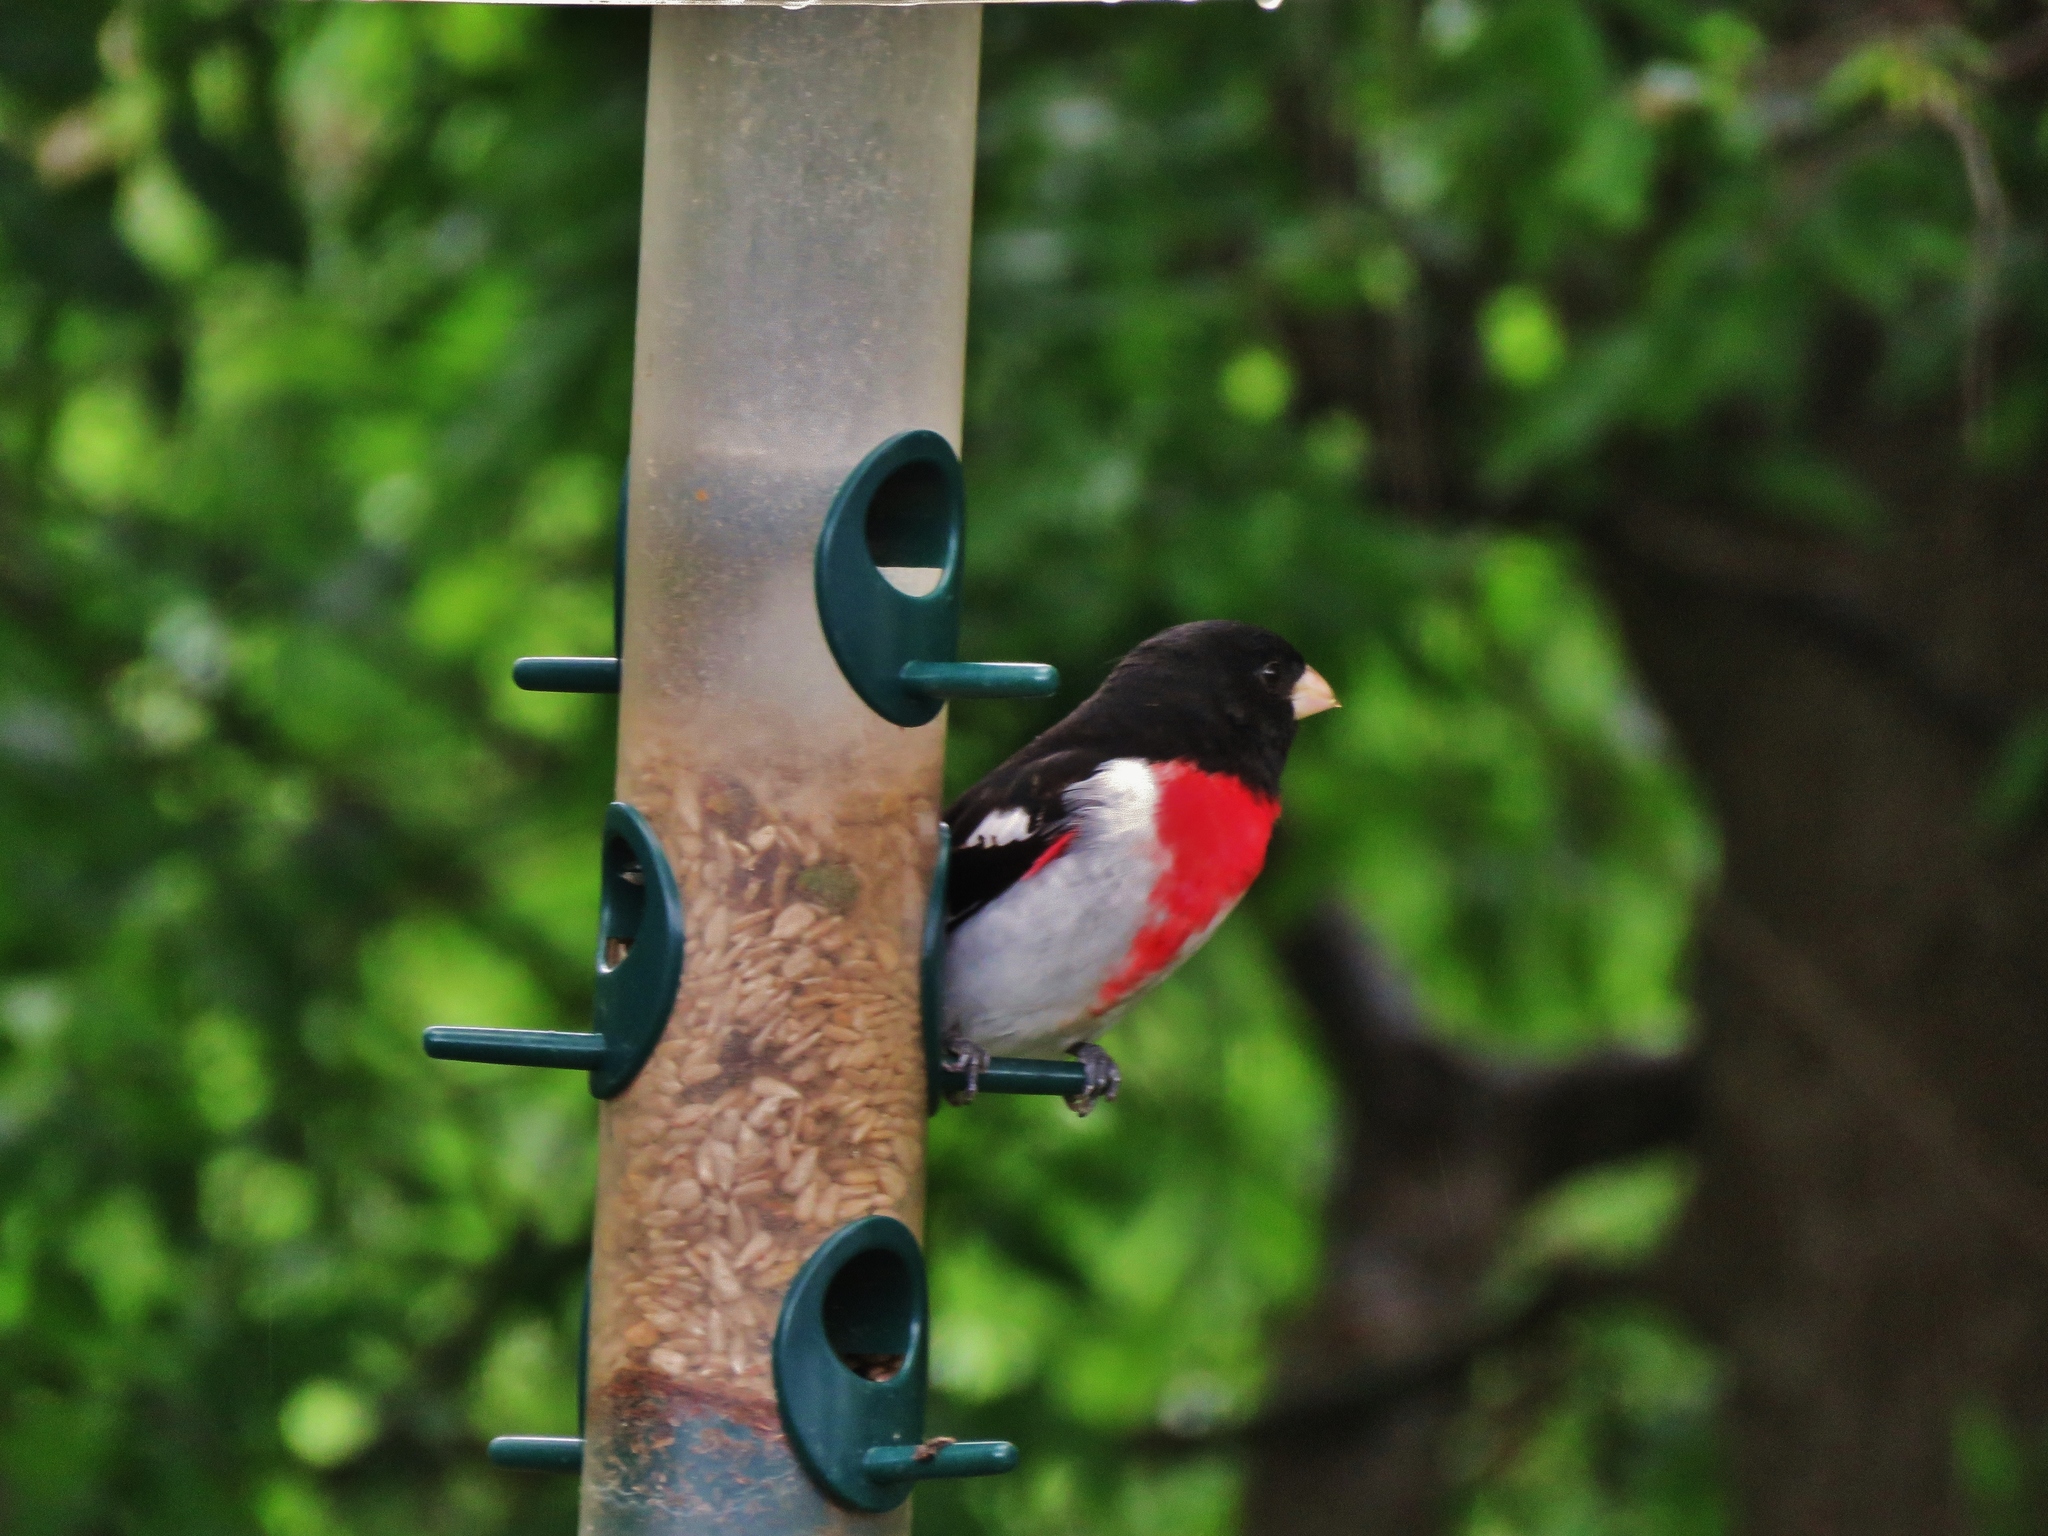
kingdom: Animalia
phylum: Chordata
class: Aves
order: Passeriformes
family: Cardinalidae
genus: Pheucticus
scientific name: Pheucticus ludovicianus
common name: Rose-breasted grosbeak
